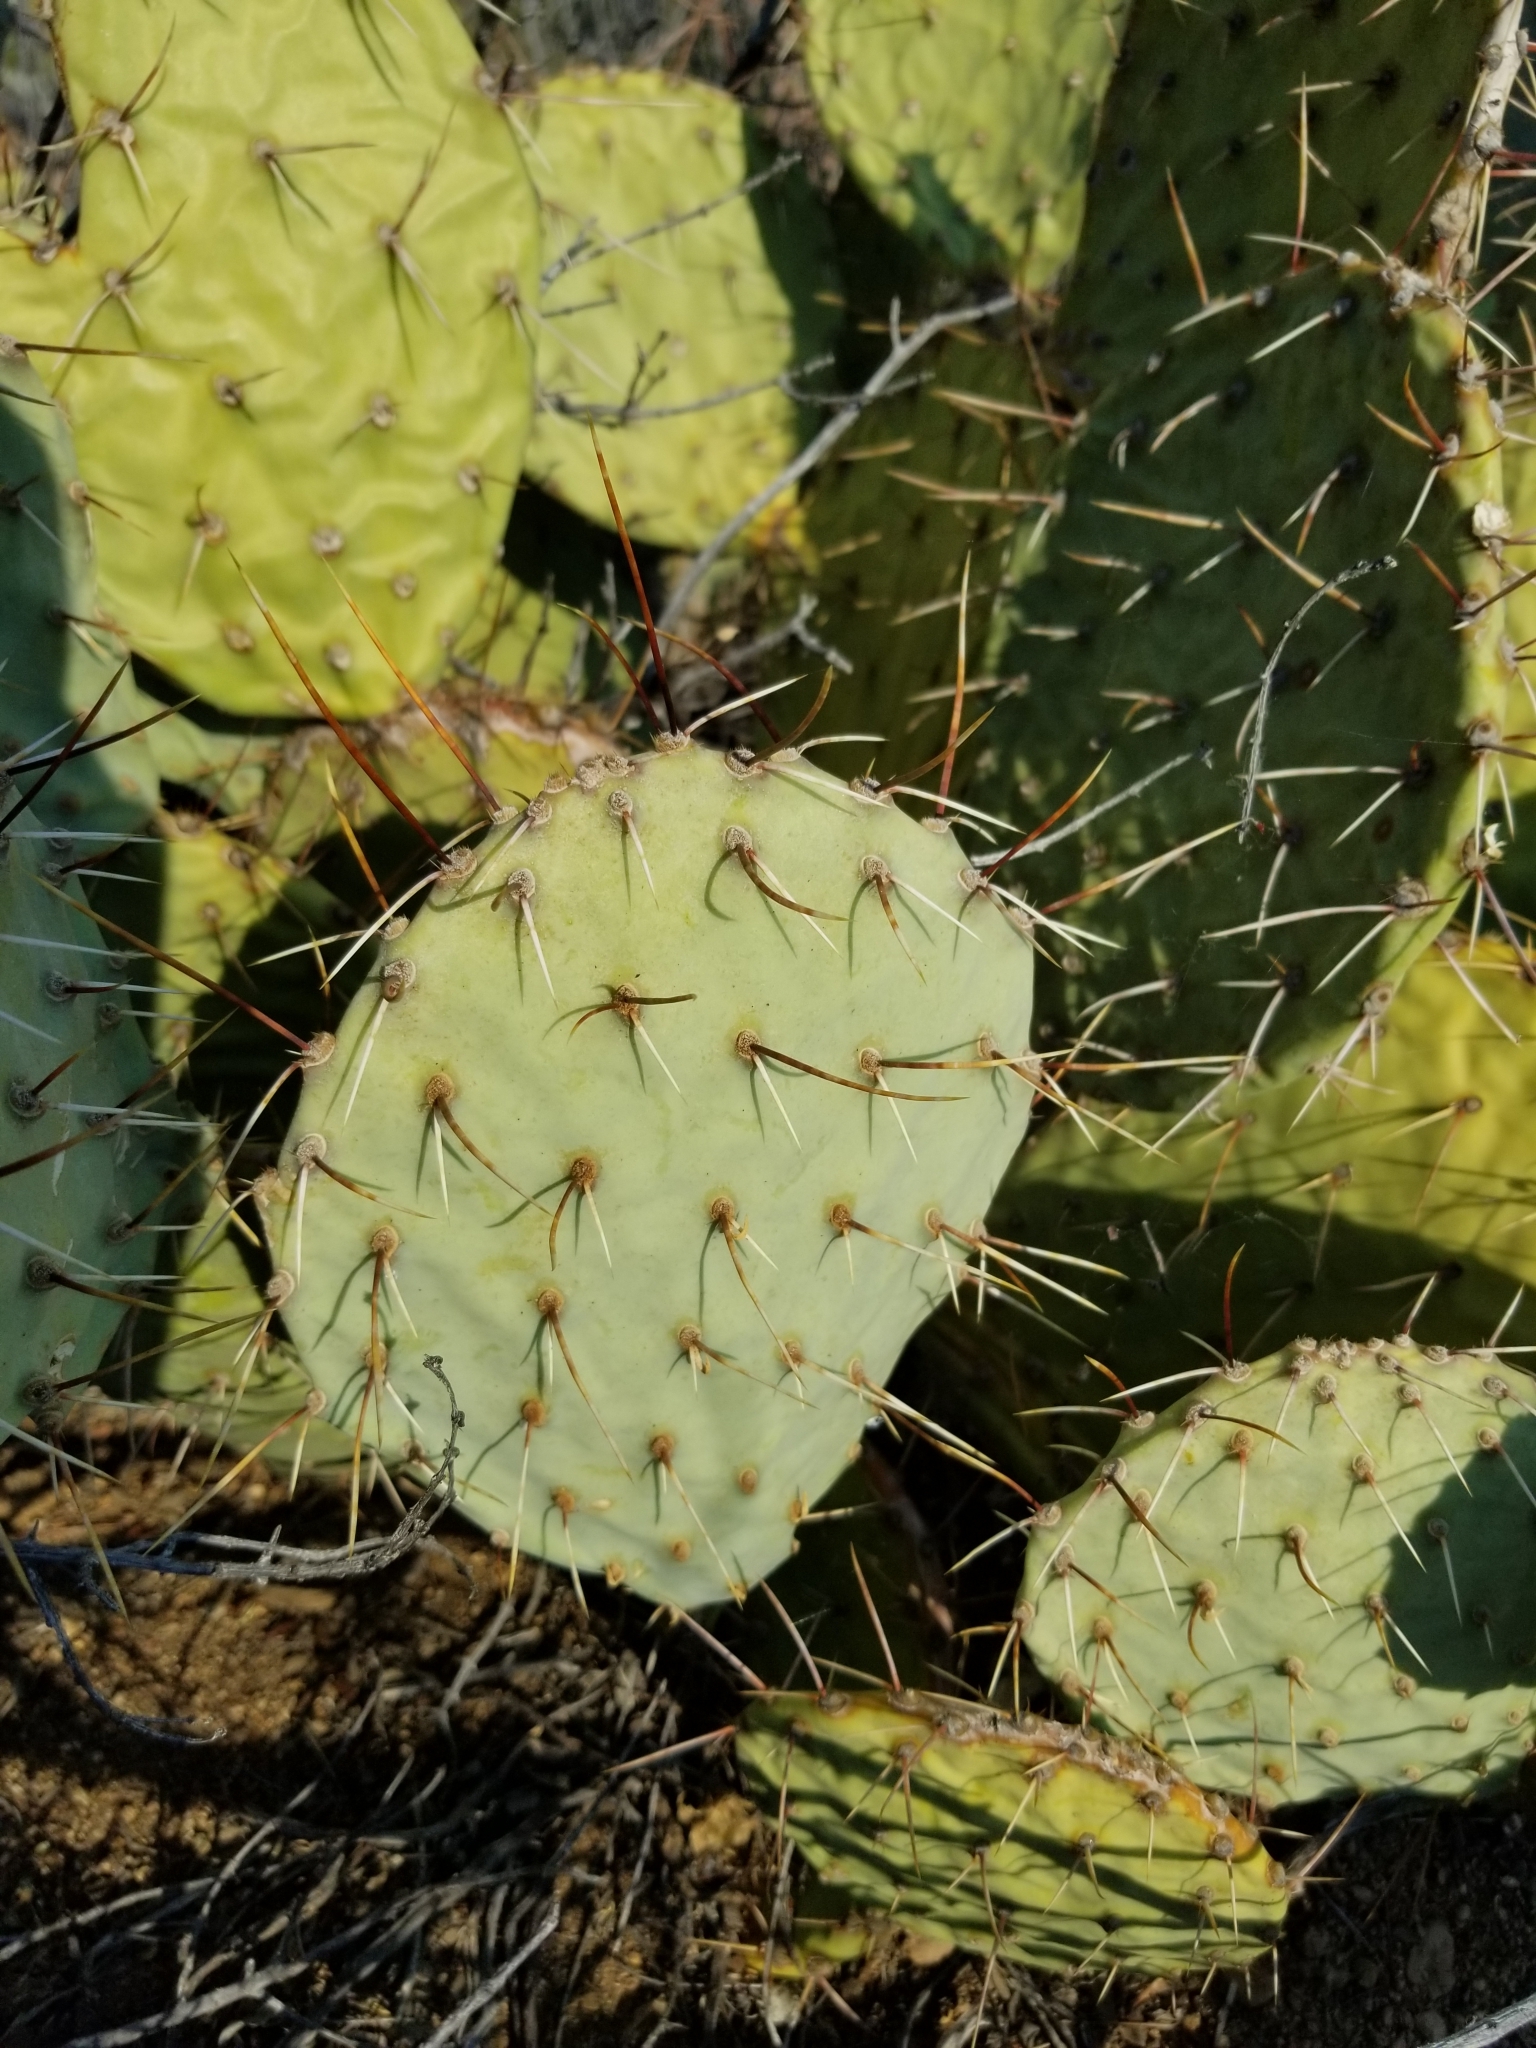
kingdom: Plantae
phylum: Tracheophyta
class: Magnoliopsida
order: Caryophyllales
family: Cactaceae
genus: Opuntia
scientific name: Opuntia phaeacantha
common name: New mexico prickly-pear
